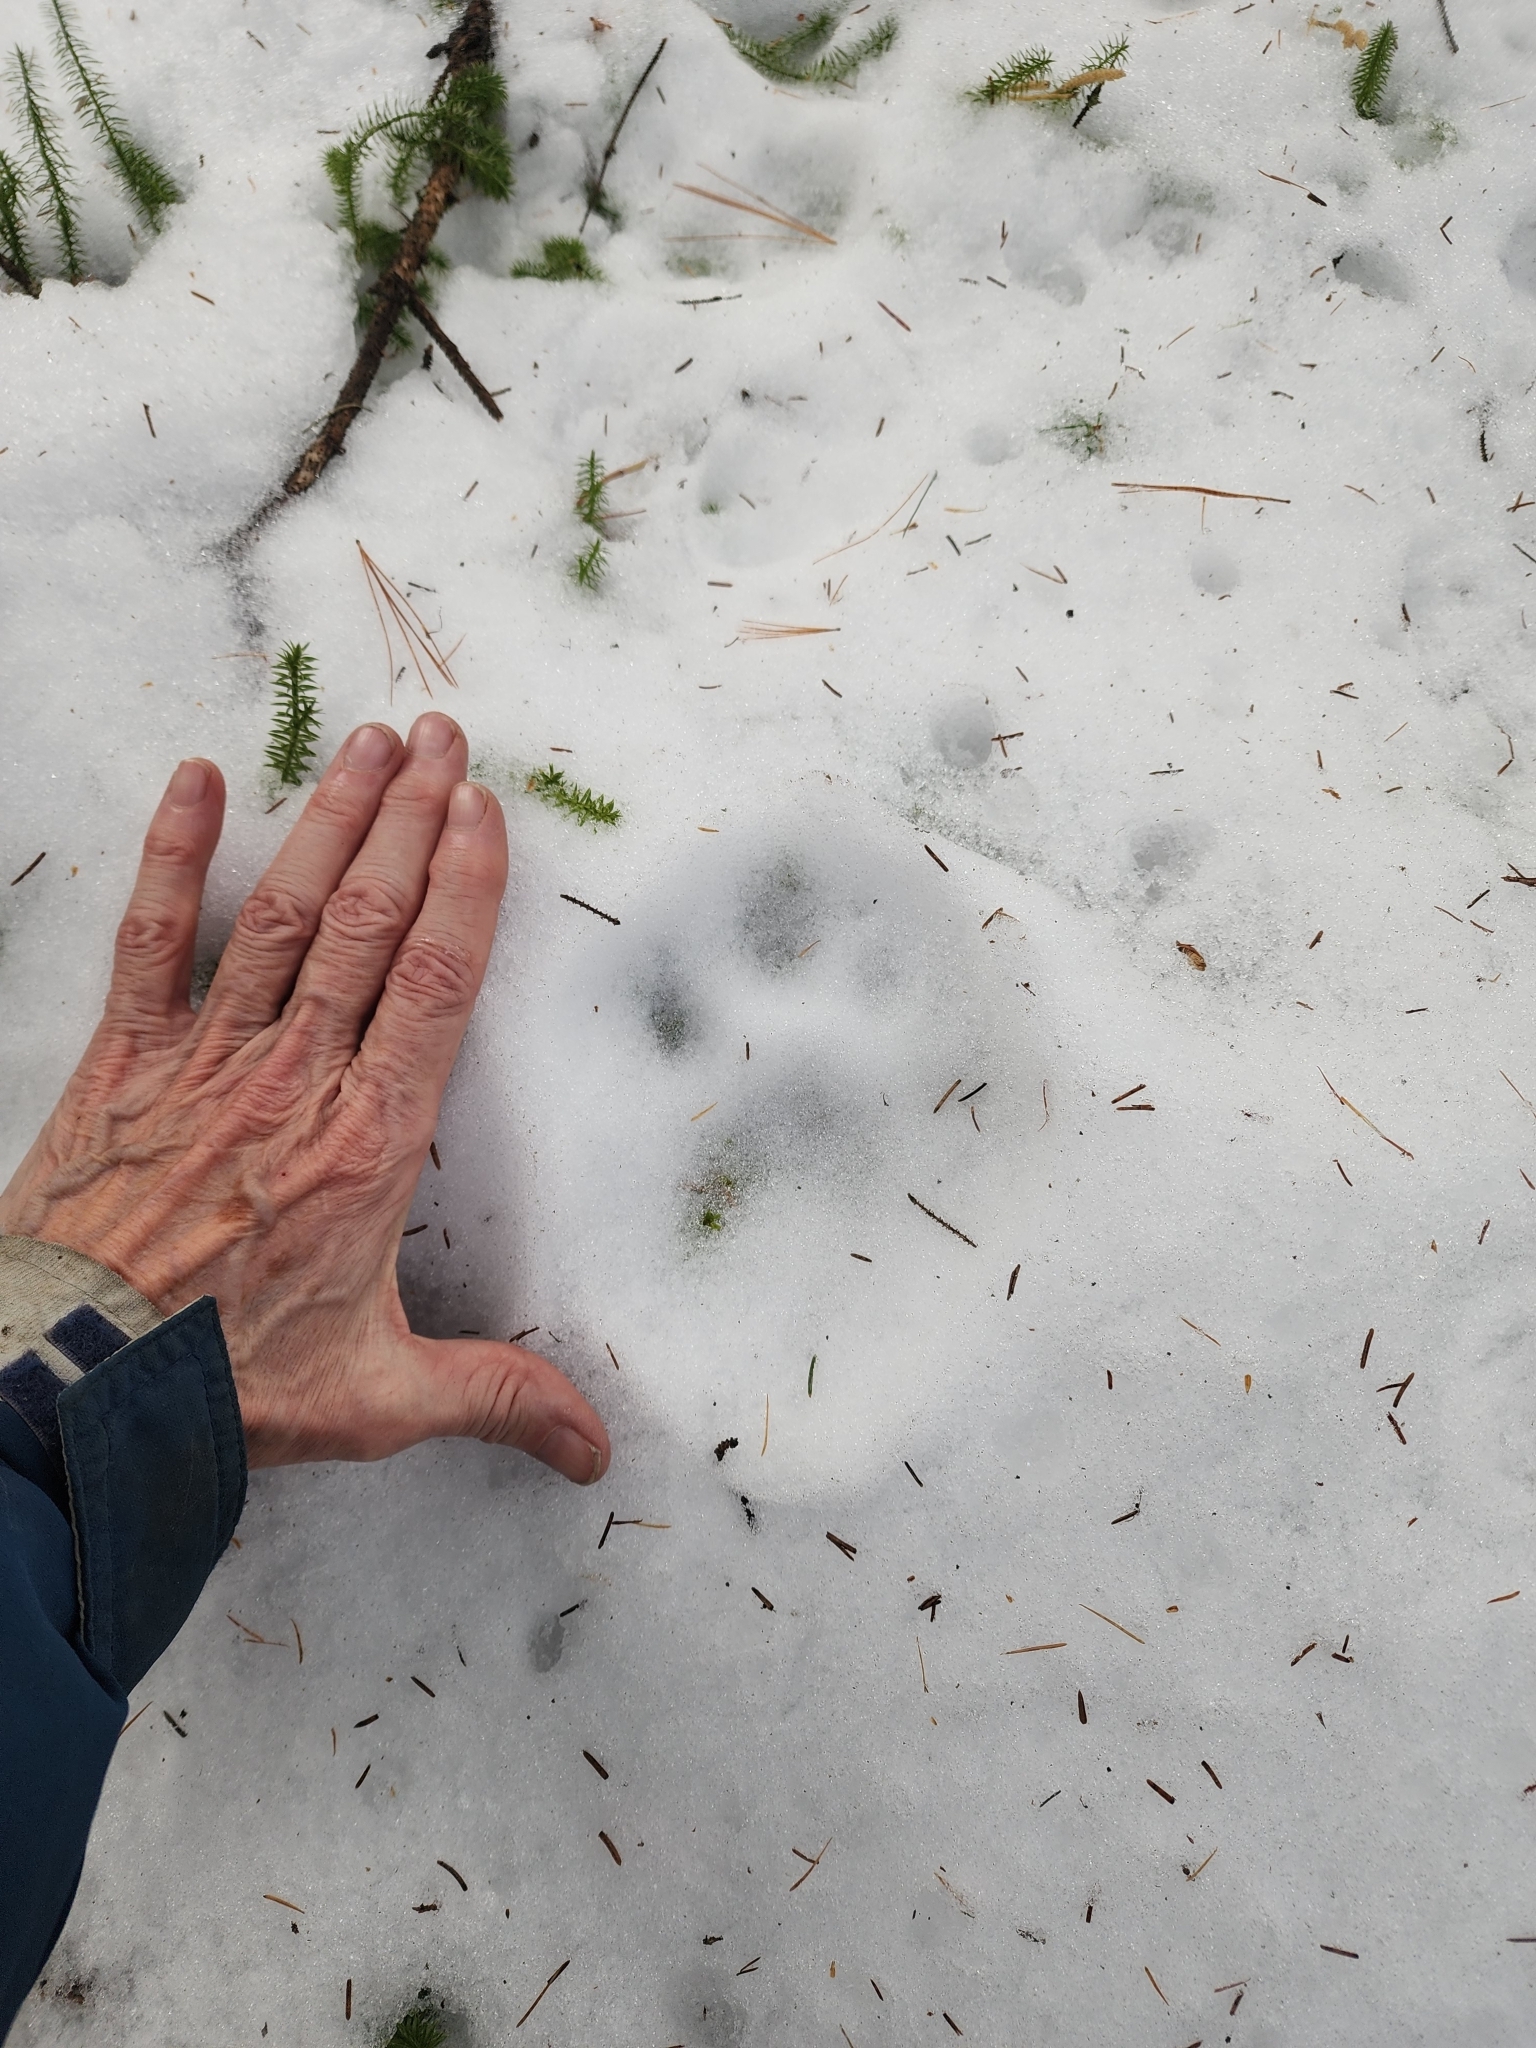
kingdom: Animalia
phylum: Chordata
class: Mammalia
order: Carnivora
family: Felidae
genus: Lynx
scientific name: Lynx canadensis
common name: Canadian lynx
